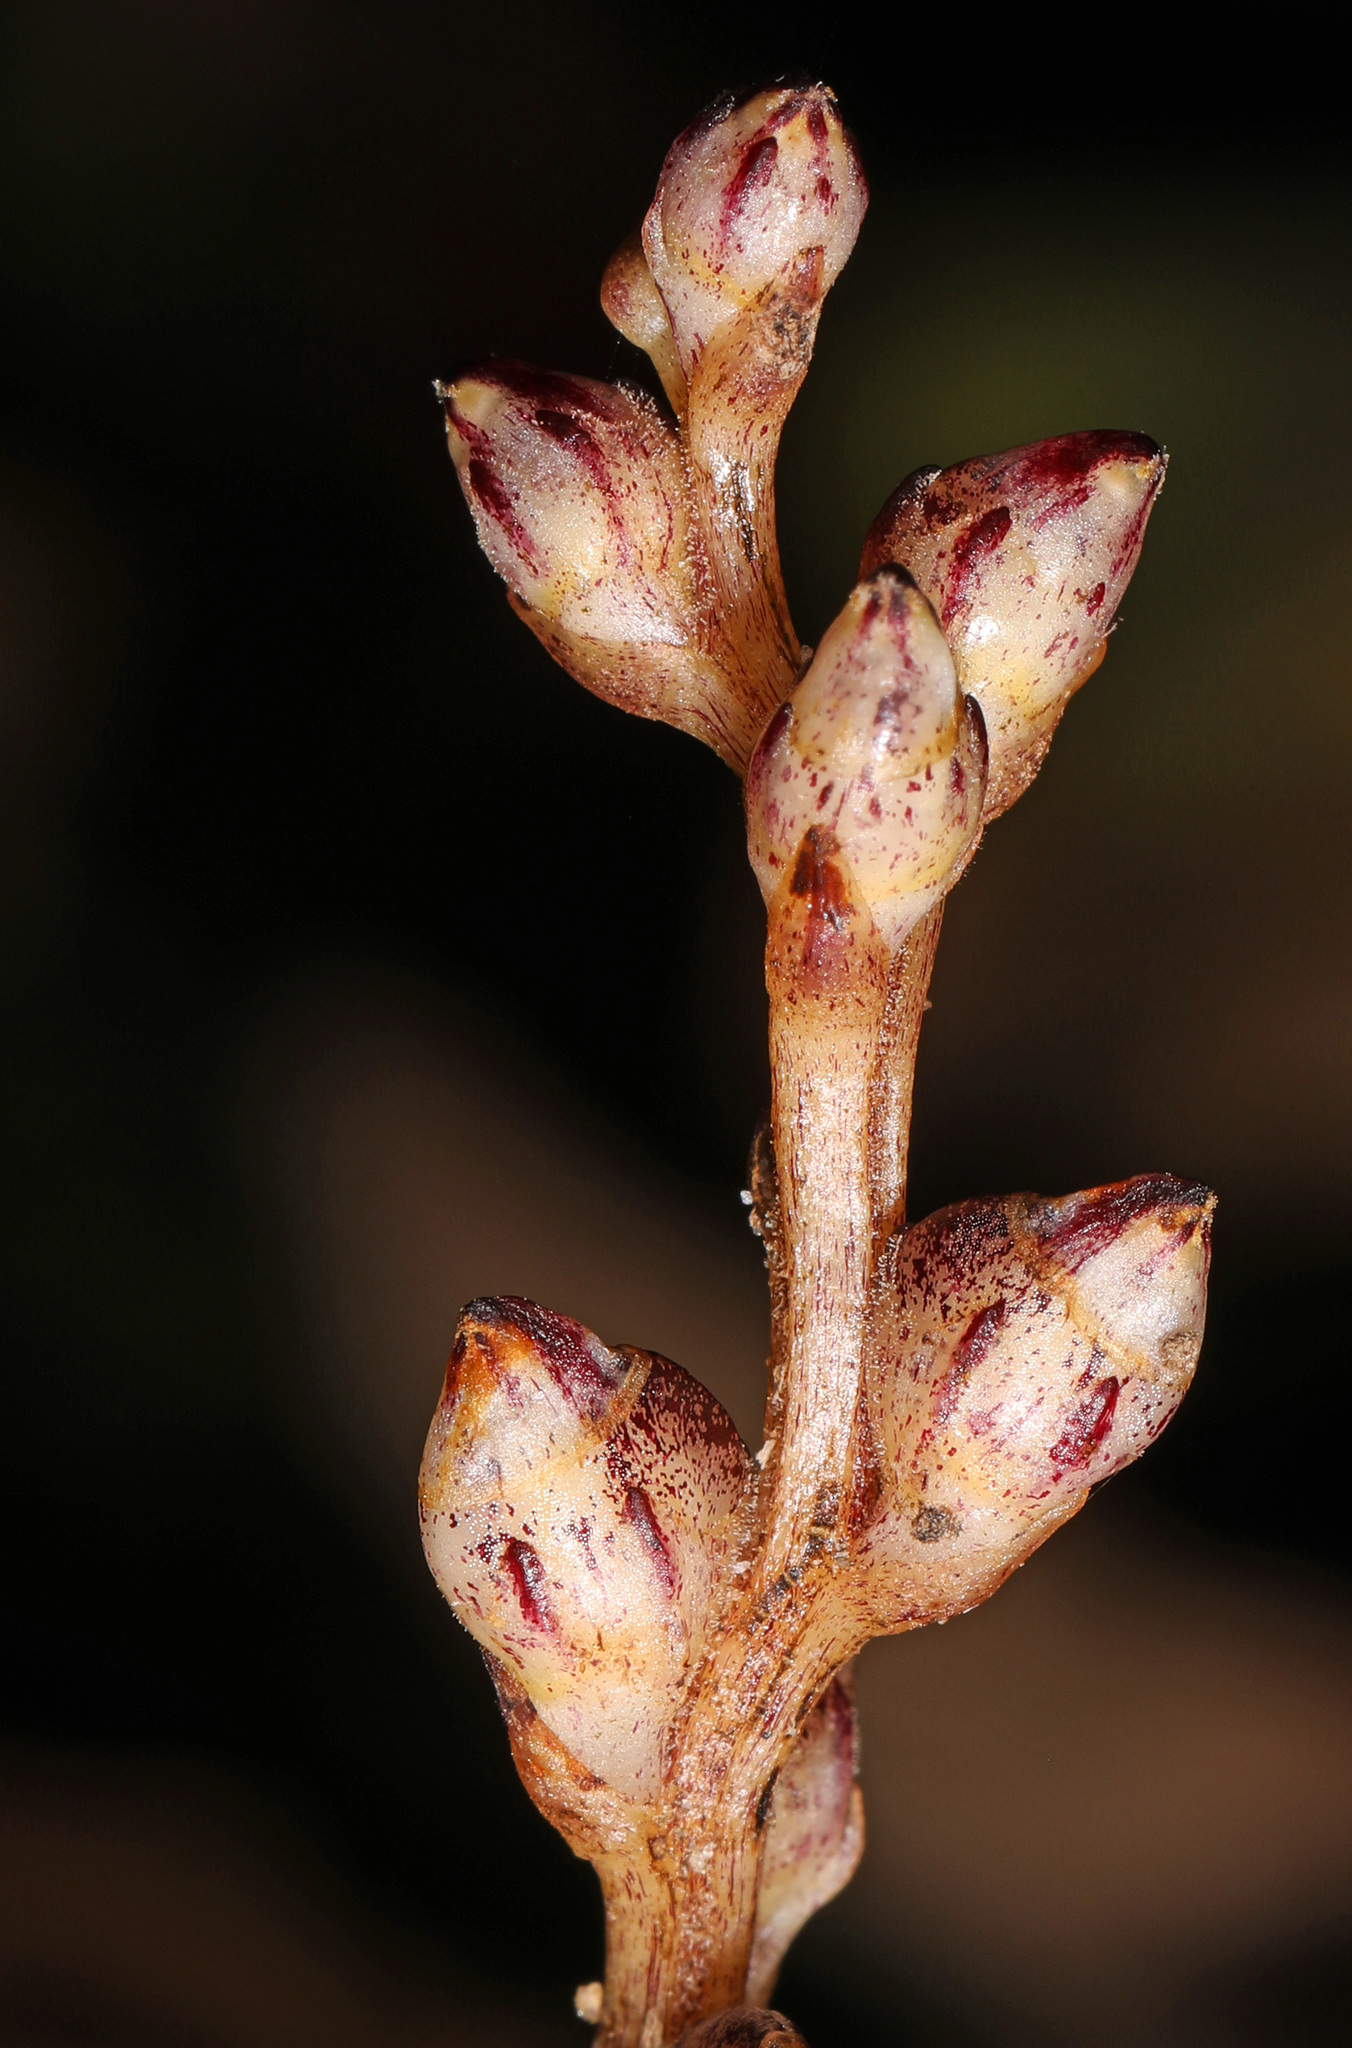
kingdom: Plantae
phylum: Tracheophyta
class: Magnoliopsida
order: Lamiales
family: Orobanchaceae
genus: Epifagus
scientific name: Epifagus virginiana
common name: Beechdrops
